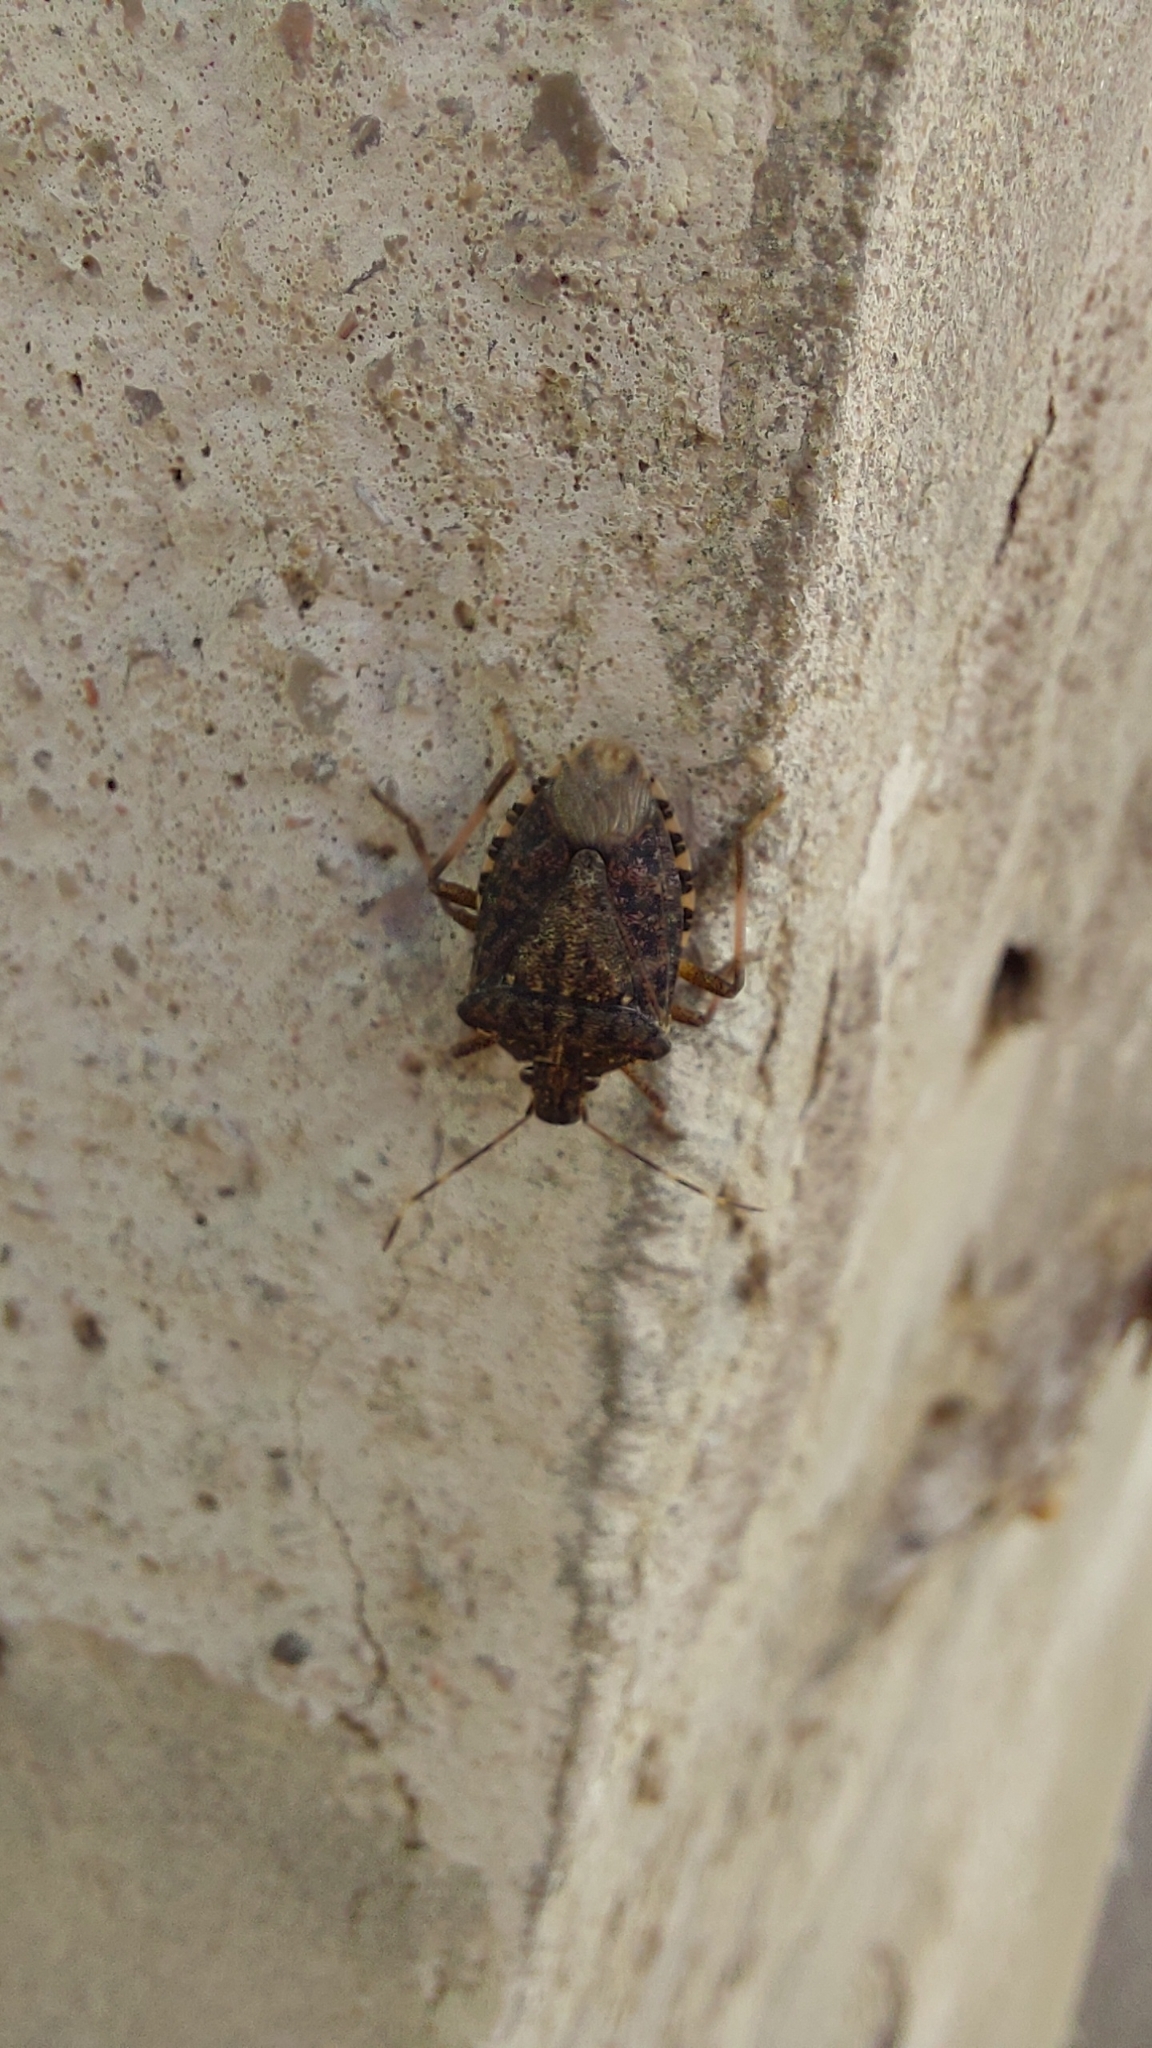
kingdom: Animalia
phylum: Arthropoda
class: Insecta
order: Hemiptera
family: Pentatomidae
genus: Halyomorpha
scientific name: Halyomorpha halys
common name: Brown marmorated stink bug
